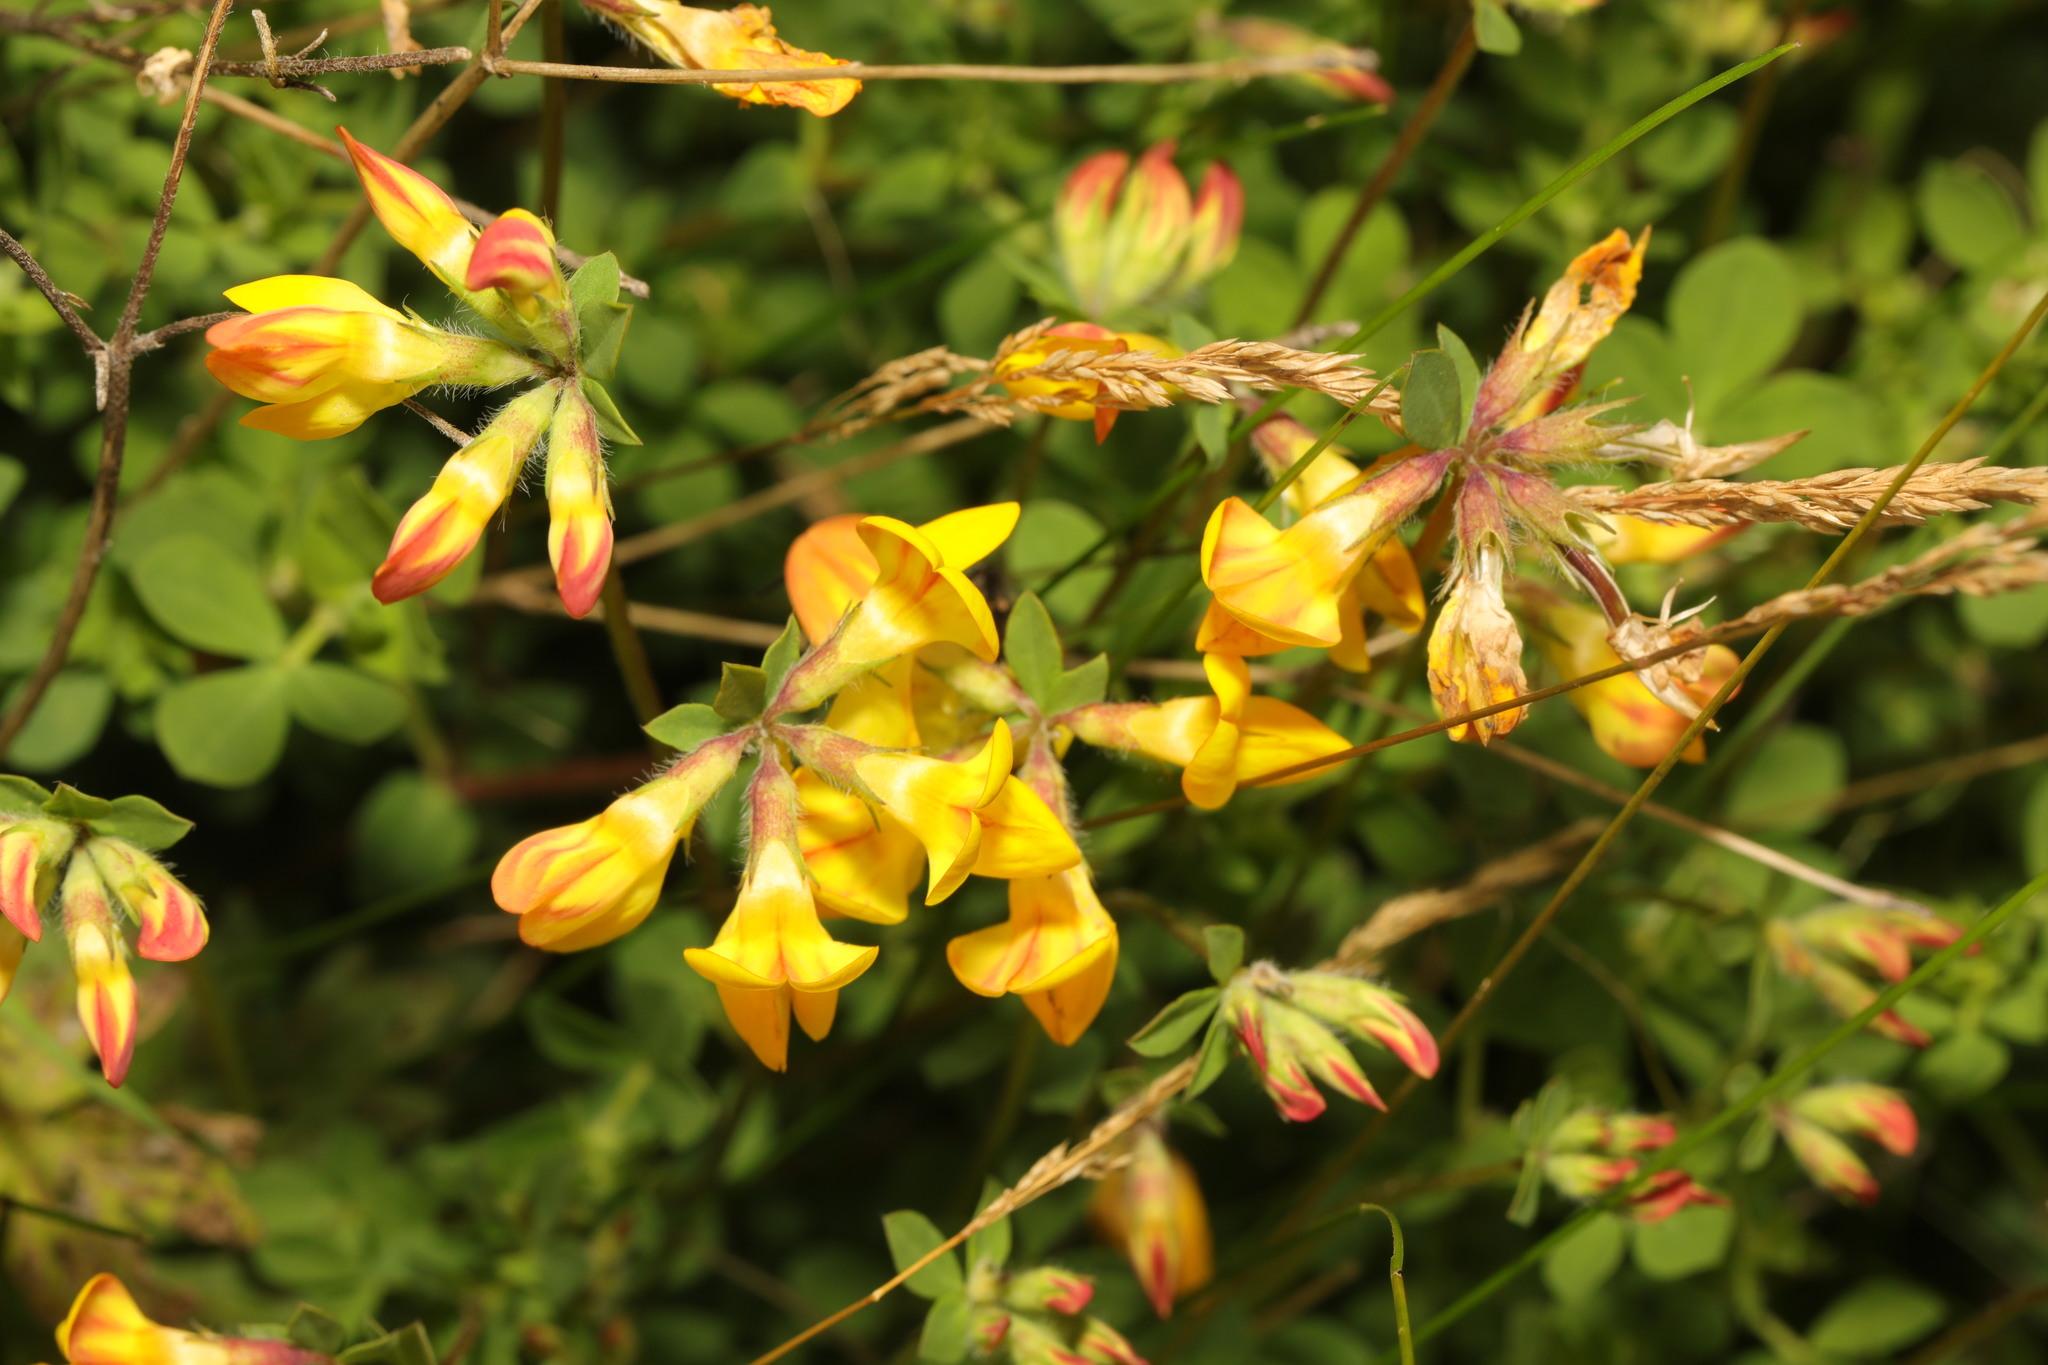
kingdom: Plantae
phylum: Tracheophyta
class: Magnoliopsida
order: Fabales
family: Fabaceae
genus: Lotus
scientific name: Lotus corniculatus
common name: Common bird's-foot-trefoil
